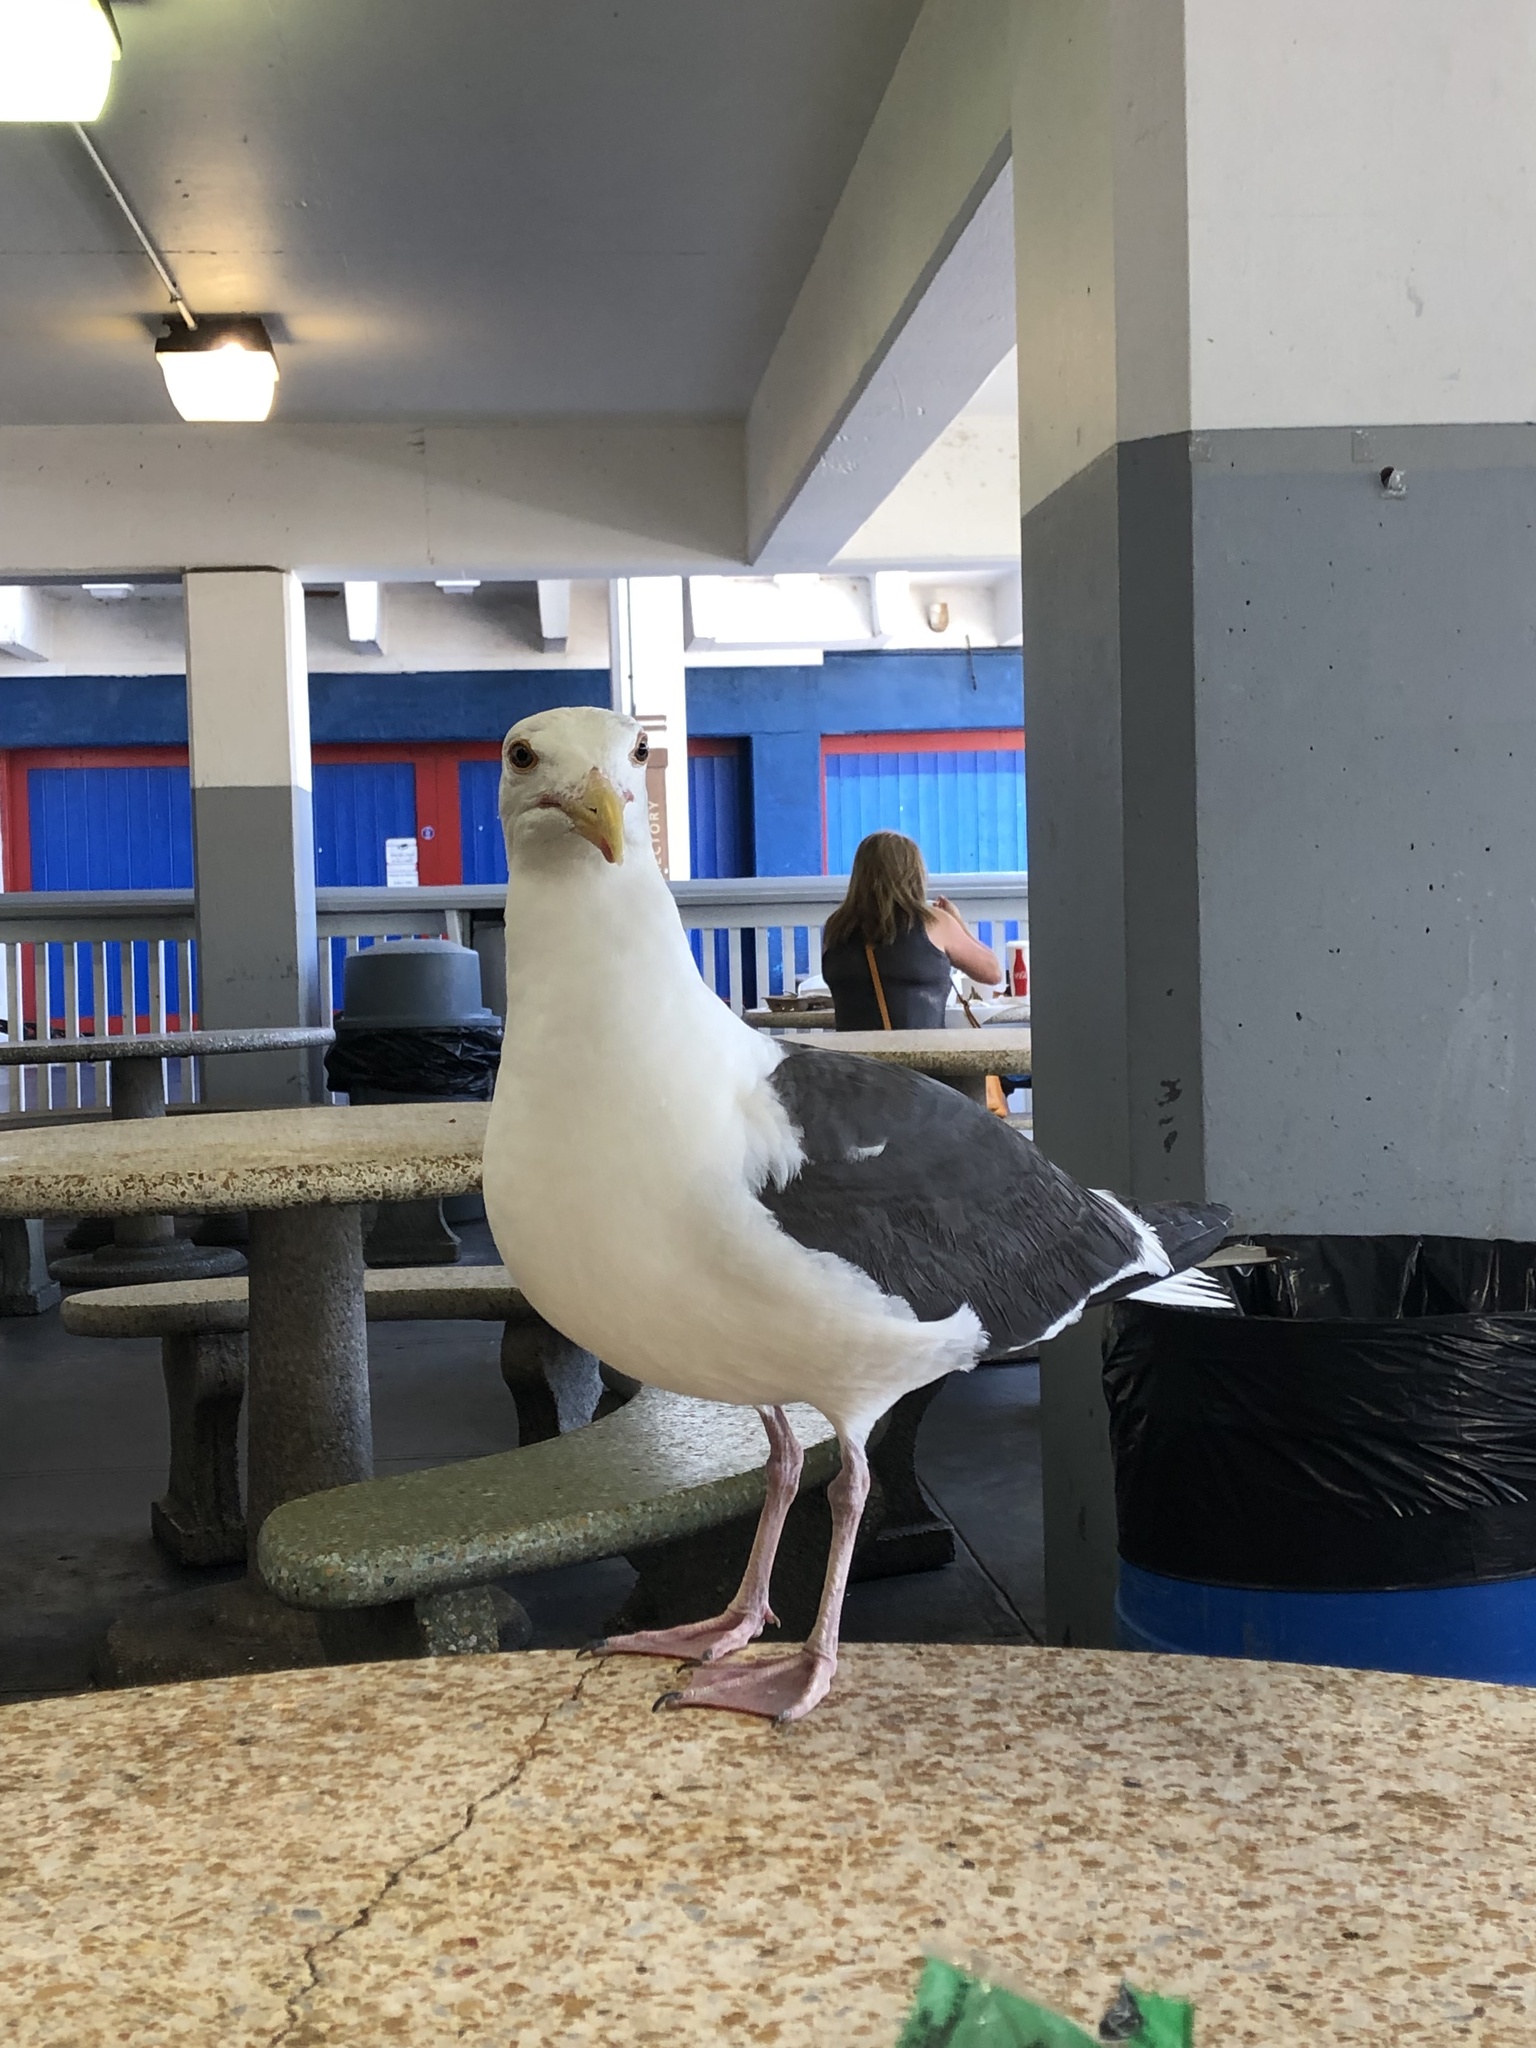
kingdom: Animalia
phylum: Chordata
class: Aves
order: Charadriiformes
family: Laridae
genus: Larus
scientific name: Larus occidentalis
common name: Western gull
